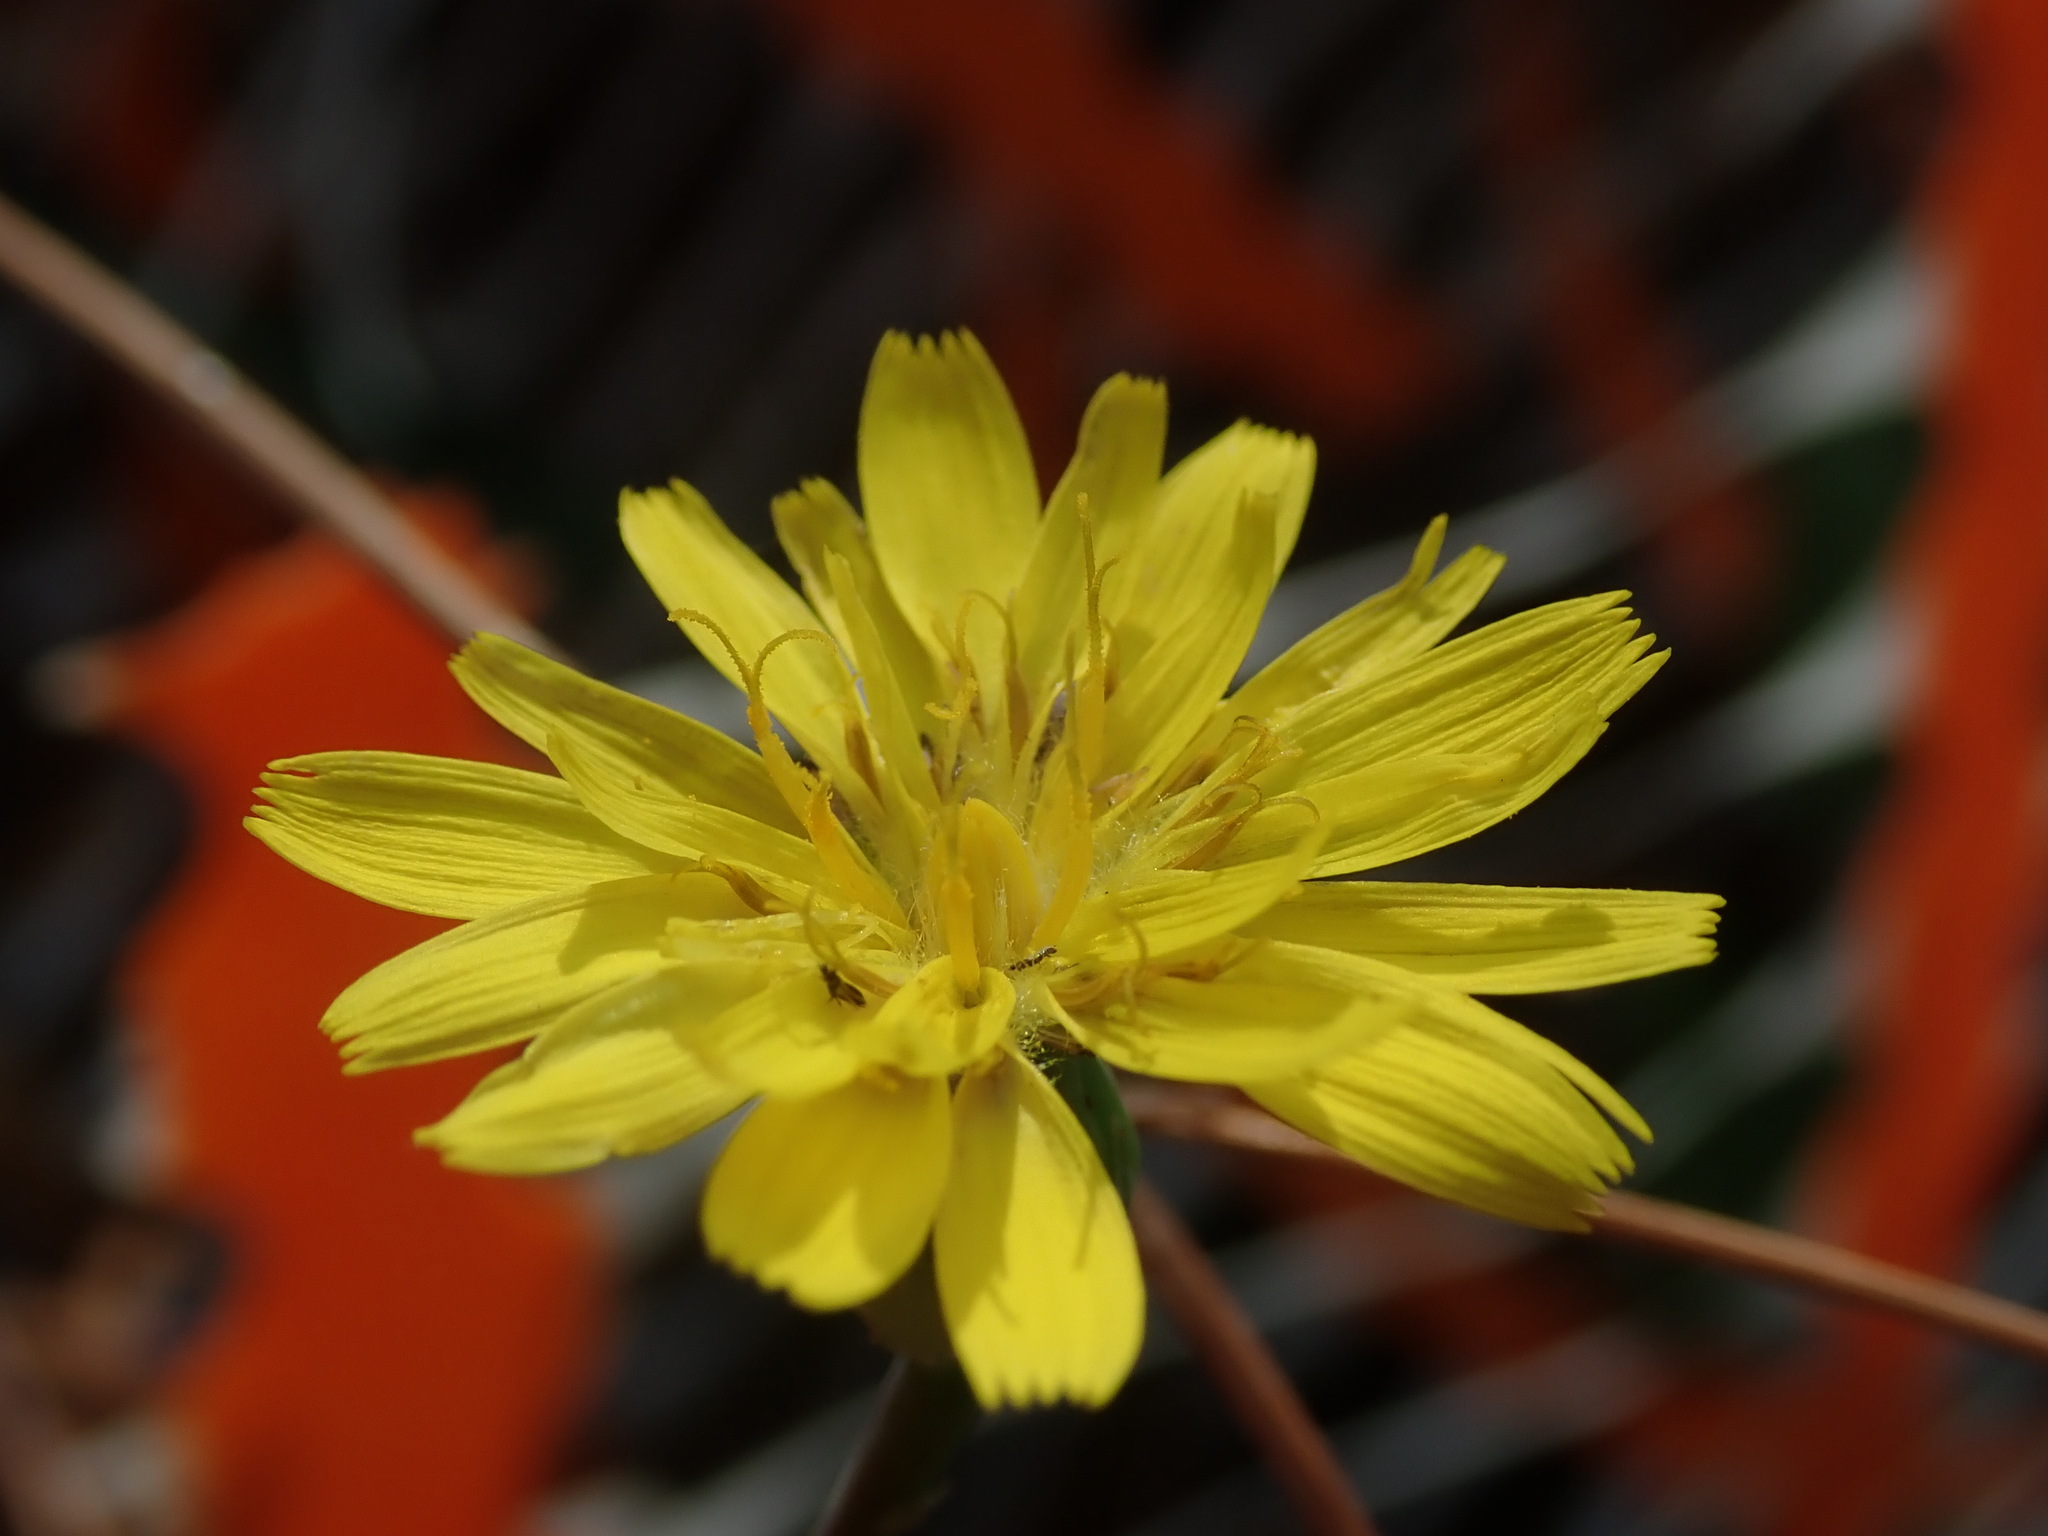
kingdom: Plantae
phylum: Tracheophyta
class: Magnoliopsida
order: Asterales
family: Asteraceae
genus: Reichardia
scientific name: Reichardia picroides
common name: Common brighteyes
